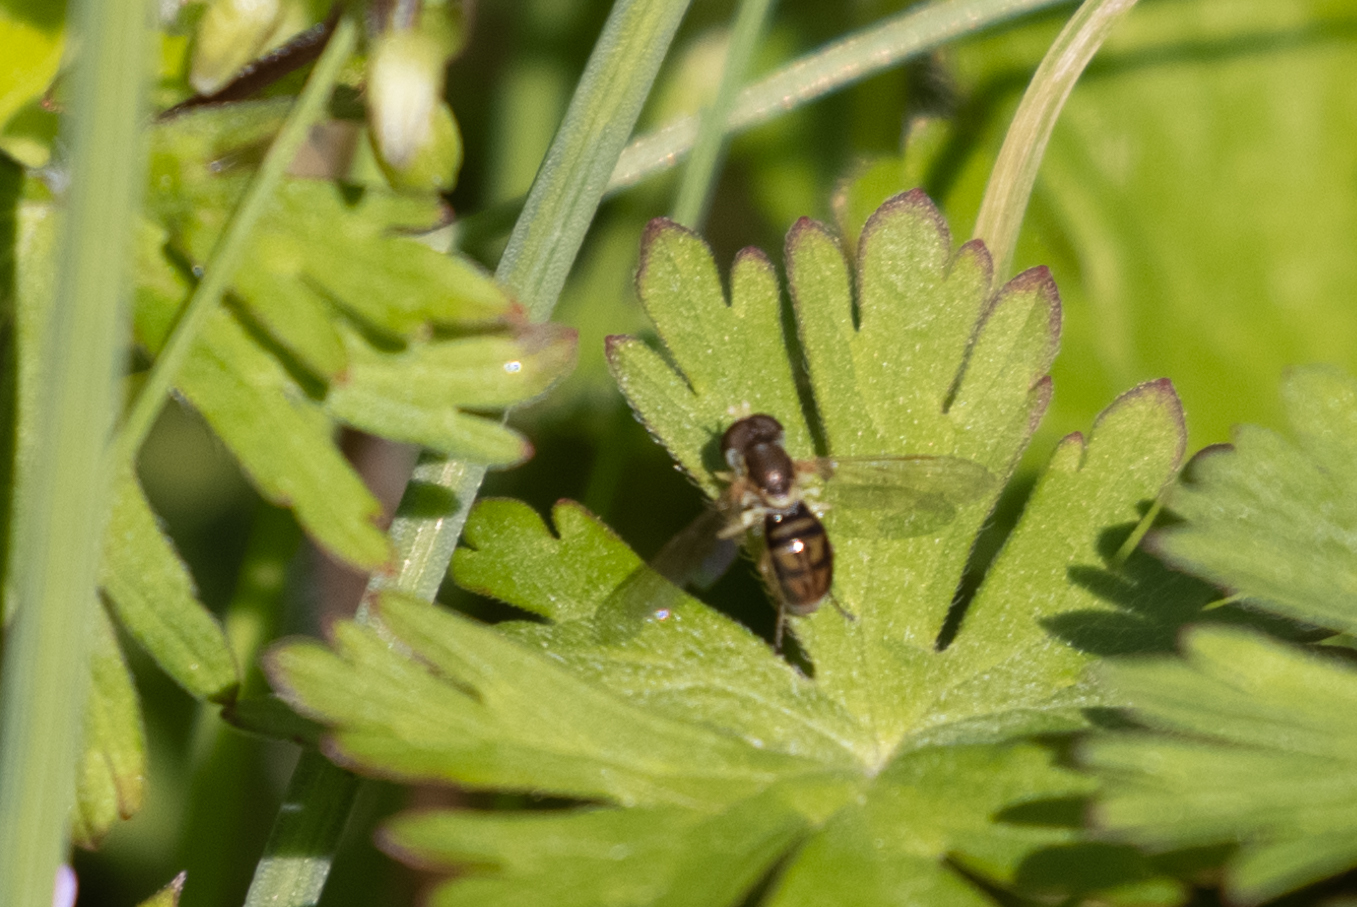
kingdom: Animalia
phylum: Arthropoda
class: Insecta
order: Diptera
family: Syrphidae
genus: Toxomerus
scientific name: Toxomerus marginatus
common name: Syrphid fly
